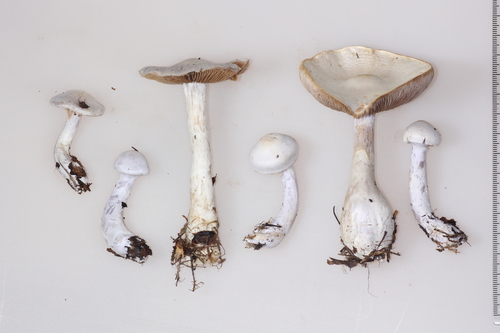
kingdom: Fungi
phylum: Basidiomycota
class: Agaricomycetes
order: Agaricales
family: Cortinariaceae
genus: Cortinarius
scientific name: Cortinarius alboviolaceus
